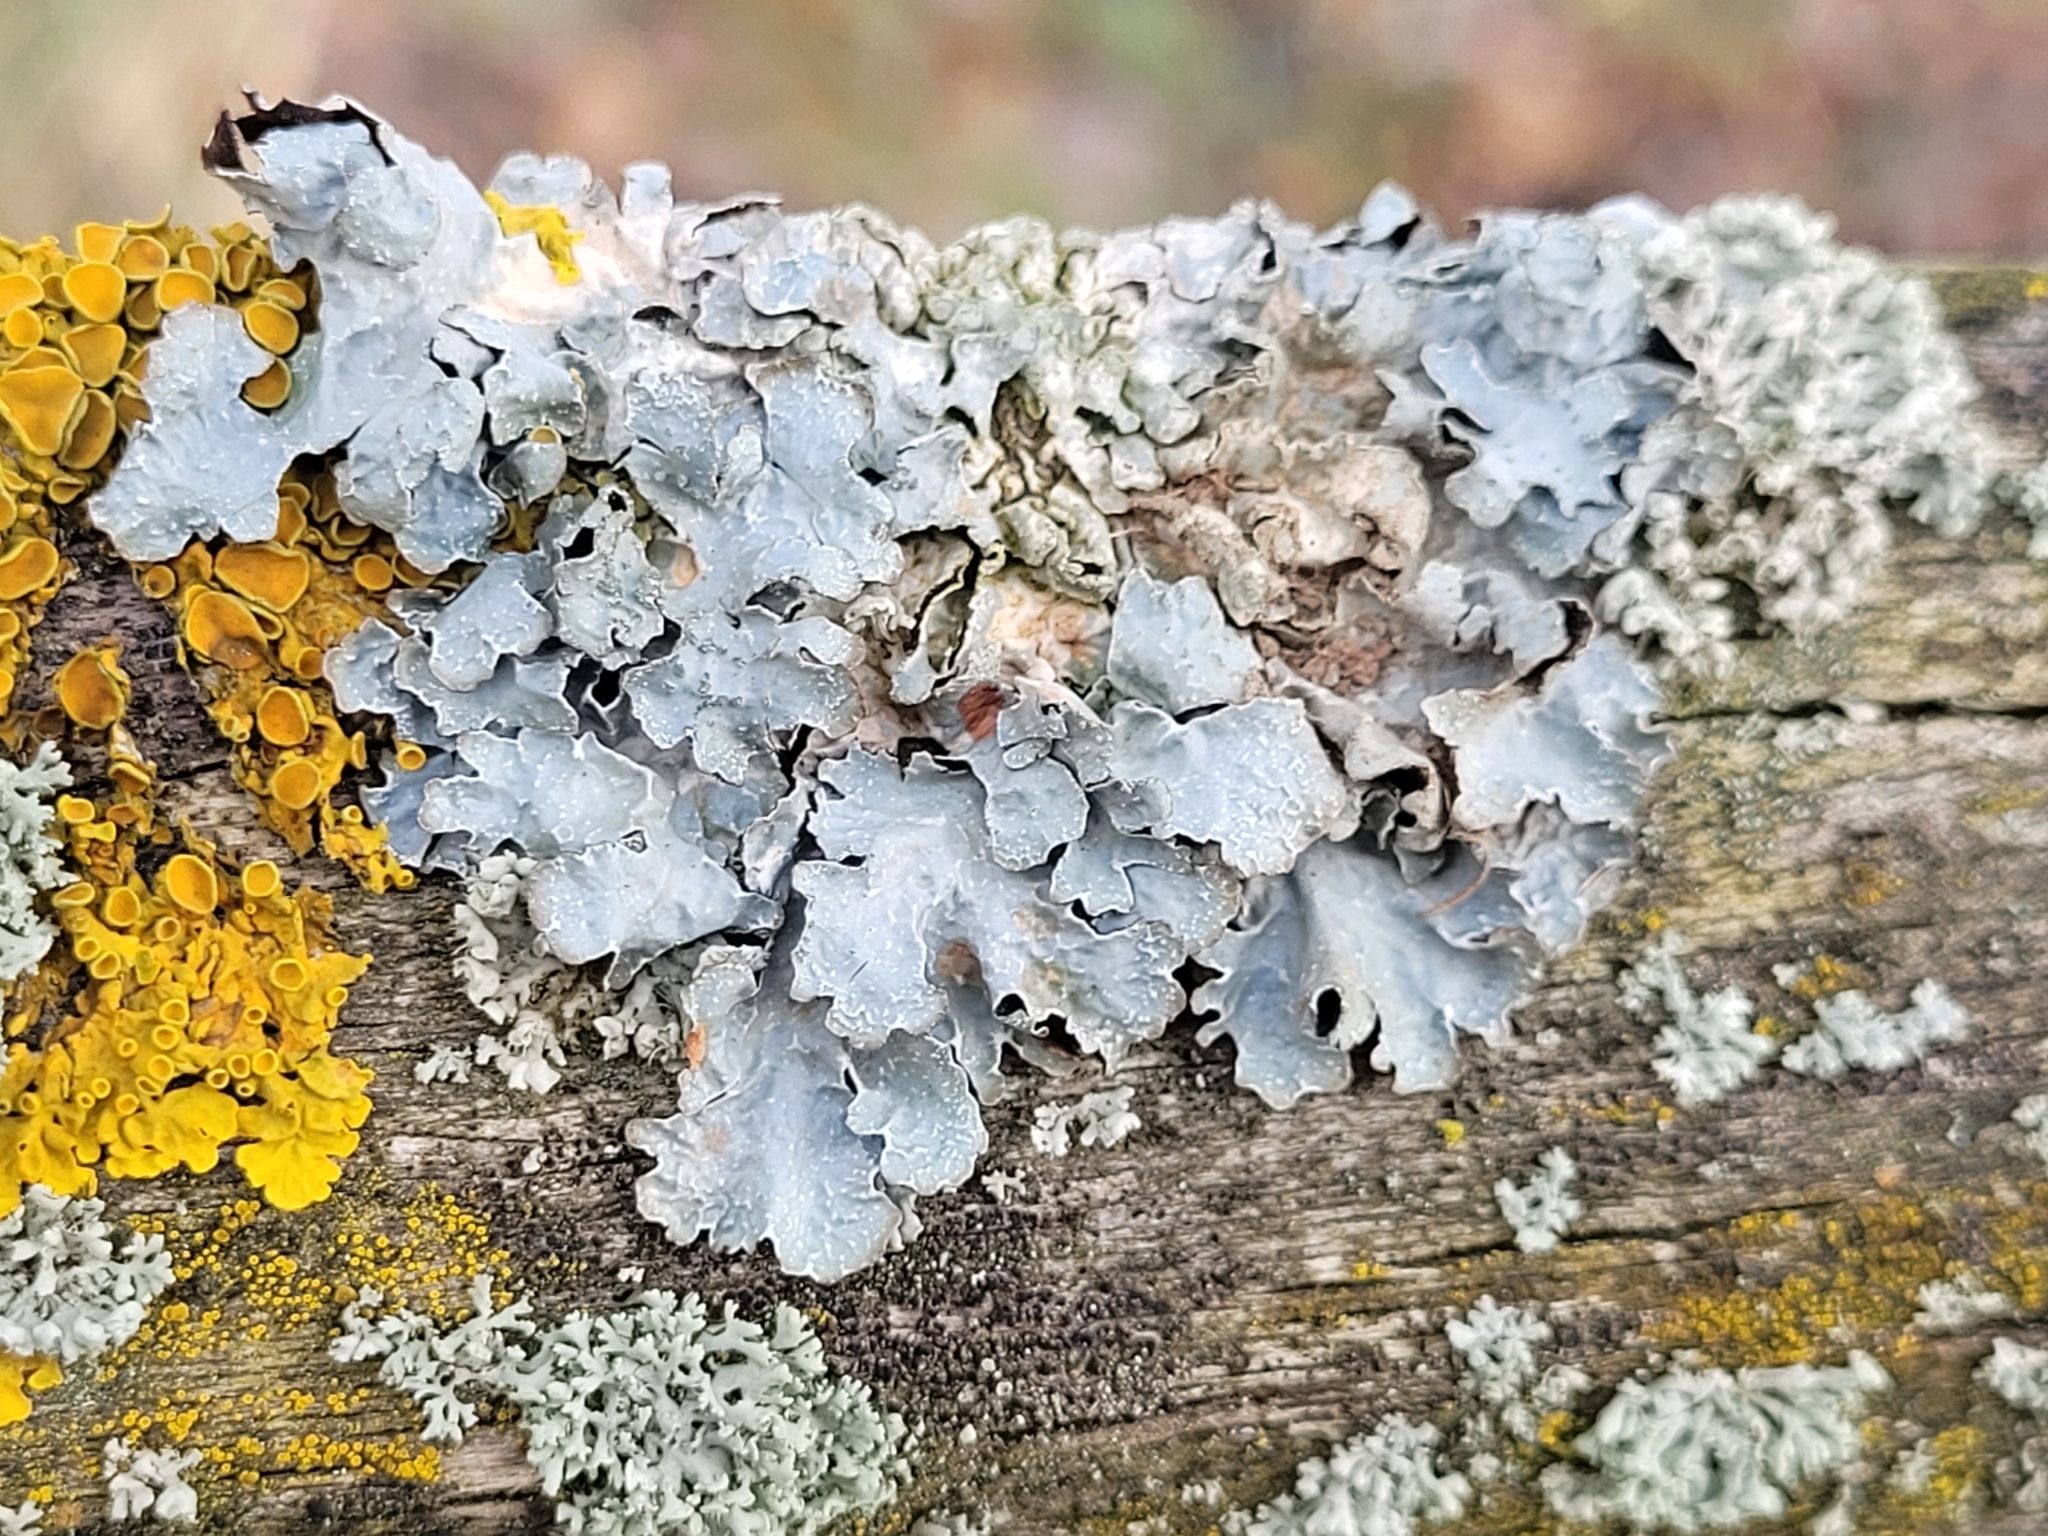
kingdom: Fungi
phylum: Ascomycota
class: Lecanoromycetes
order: Lecanorales
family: Parmeliaceae
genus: Parmelia
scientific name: Parmelia sulcata
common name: Netted shield lichen
